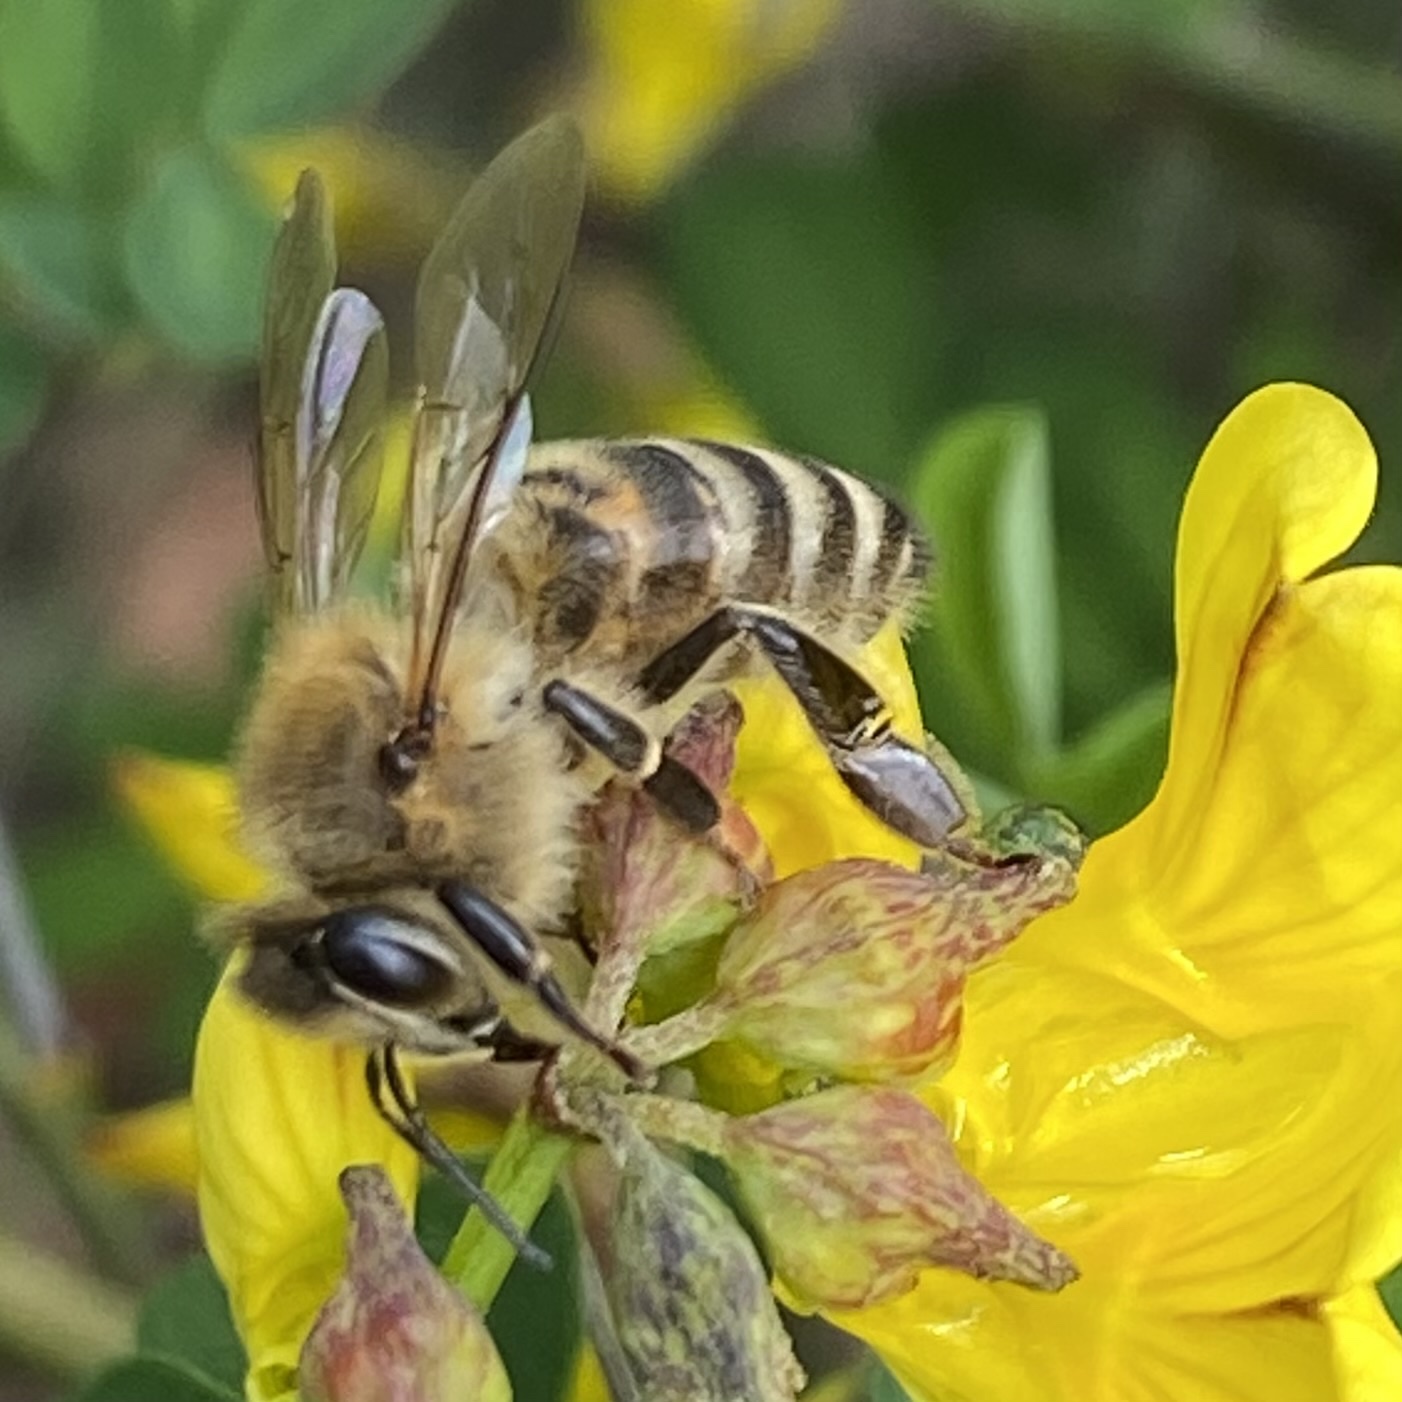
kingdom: Animalia
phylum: Arthropoda
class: Insecta
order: Hymenoptera
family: Apidae
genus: Apis
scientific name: Apis mellifera
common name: Honey bee
